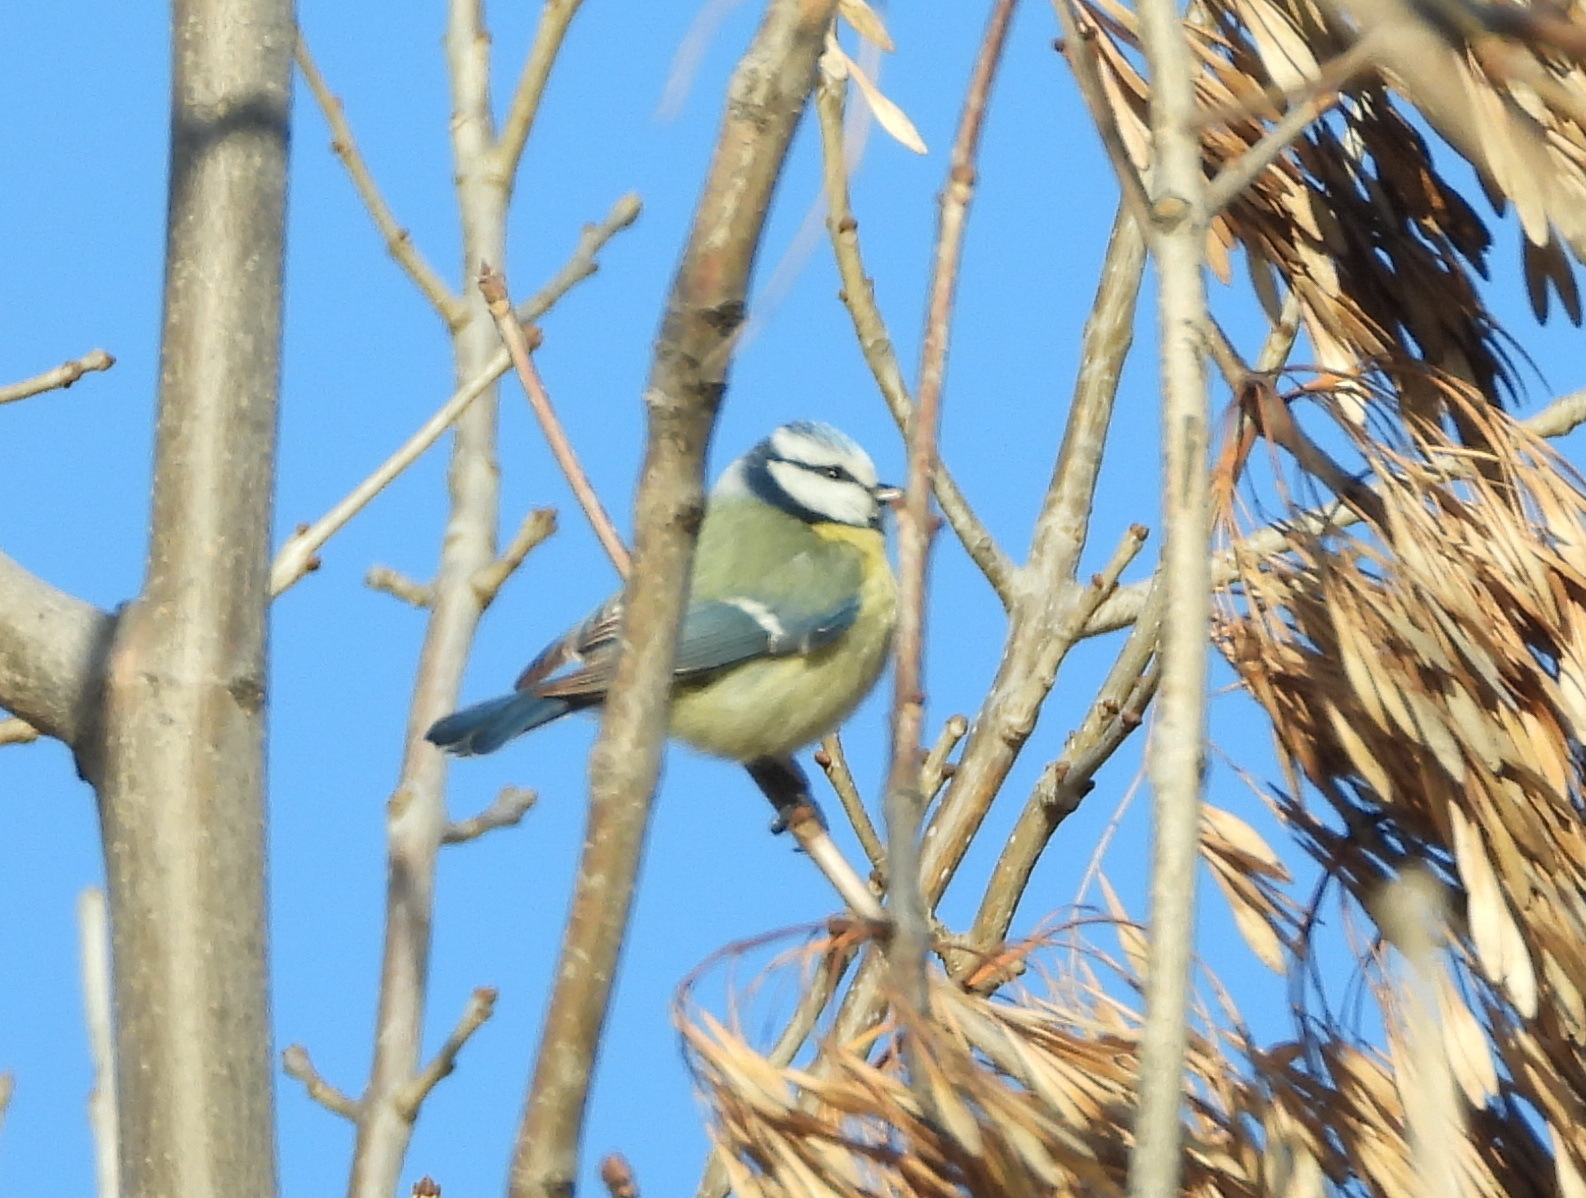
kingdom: Animalia
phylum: Chordata
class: Aves
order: Passeriformes
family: Paridae
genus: Cyanistes
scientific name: Cyanistes caeruleus
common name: Eurasian blue tit
